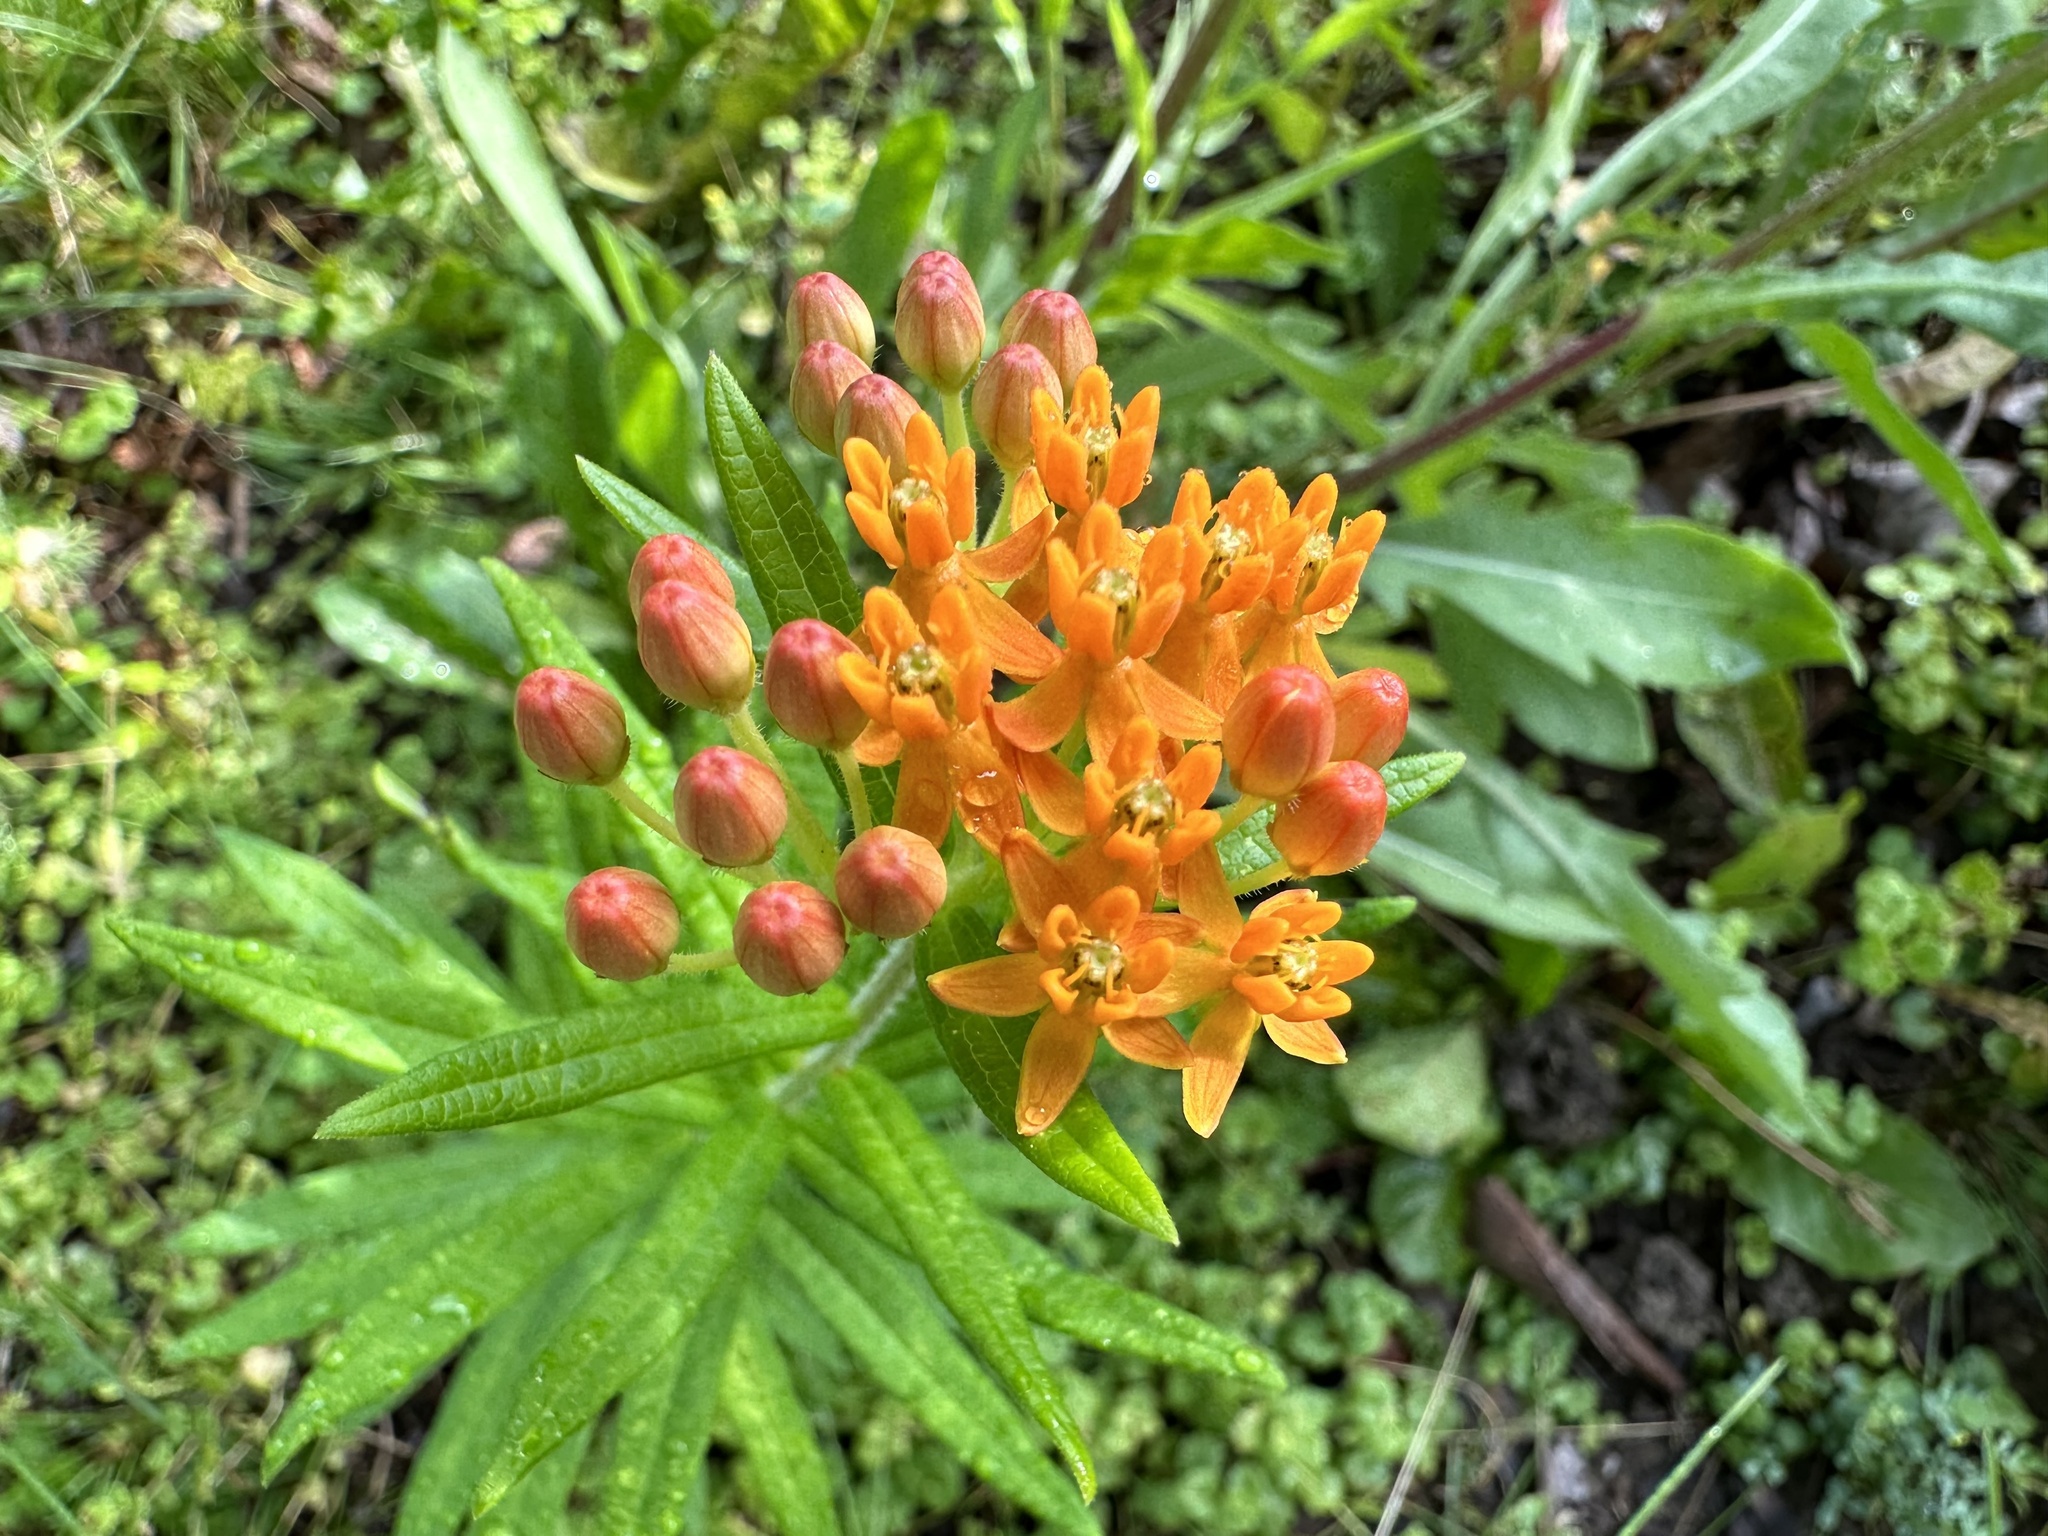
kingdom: Plantae
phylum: Tracheophyta
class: Magnoliopsida
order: Gentianales
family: Apocynaceae
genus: Asclepias
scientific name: Asclepias tuberosa
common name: Butterfly milkweed
